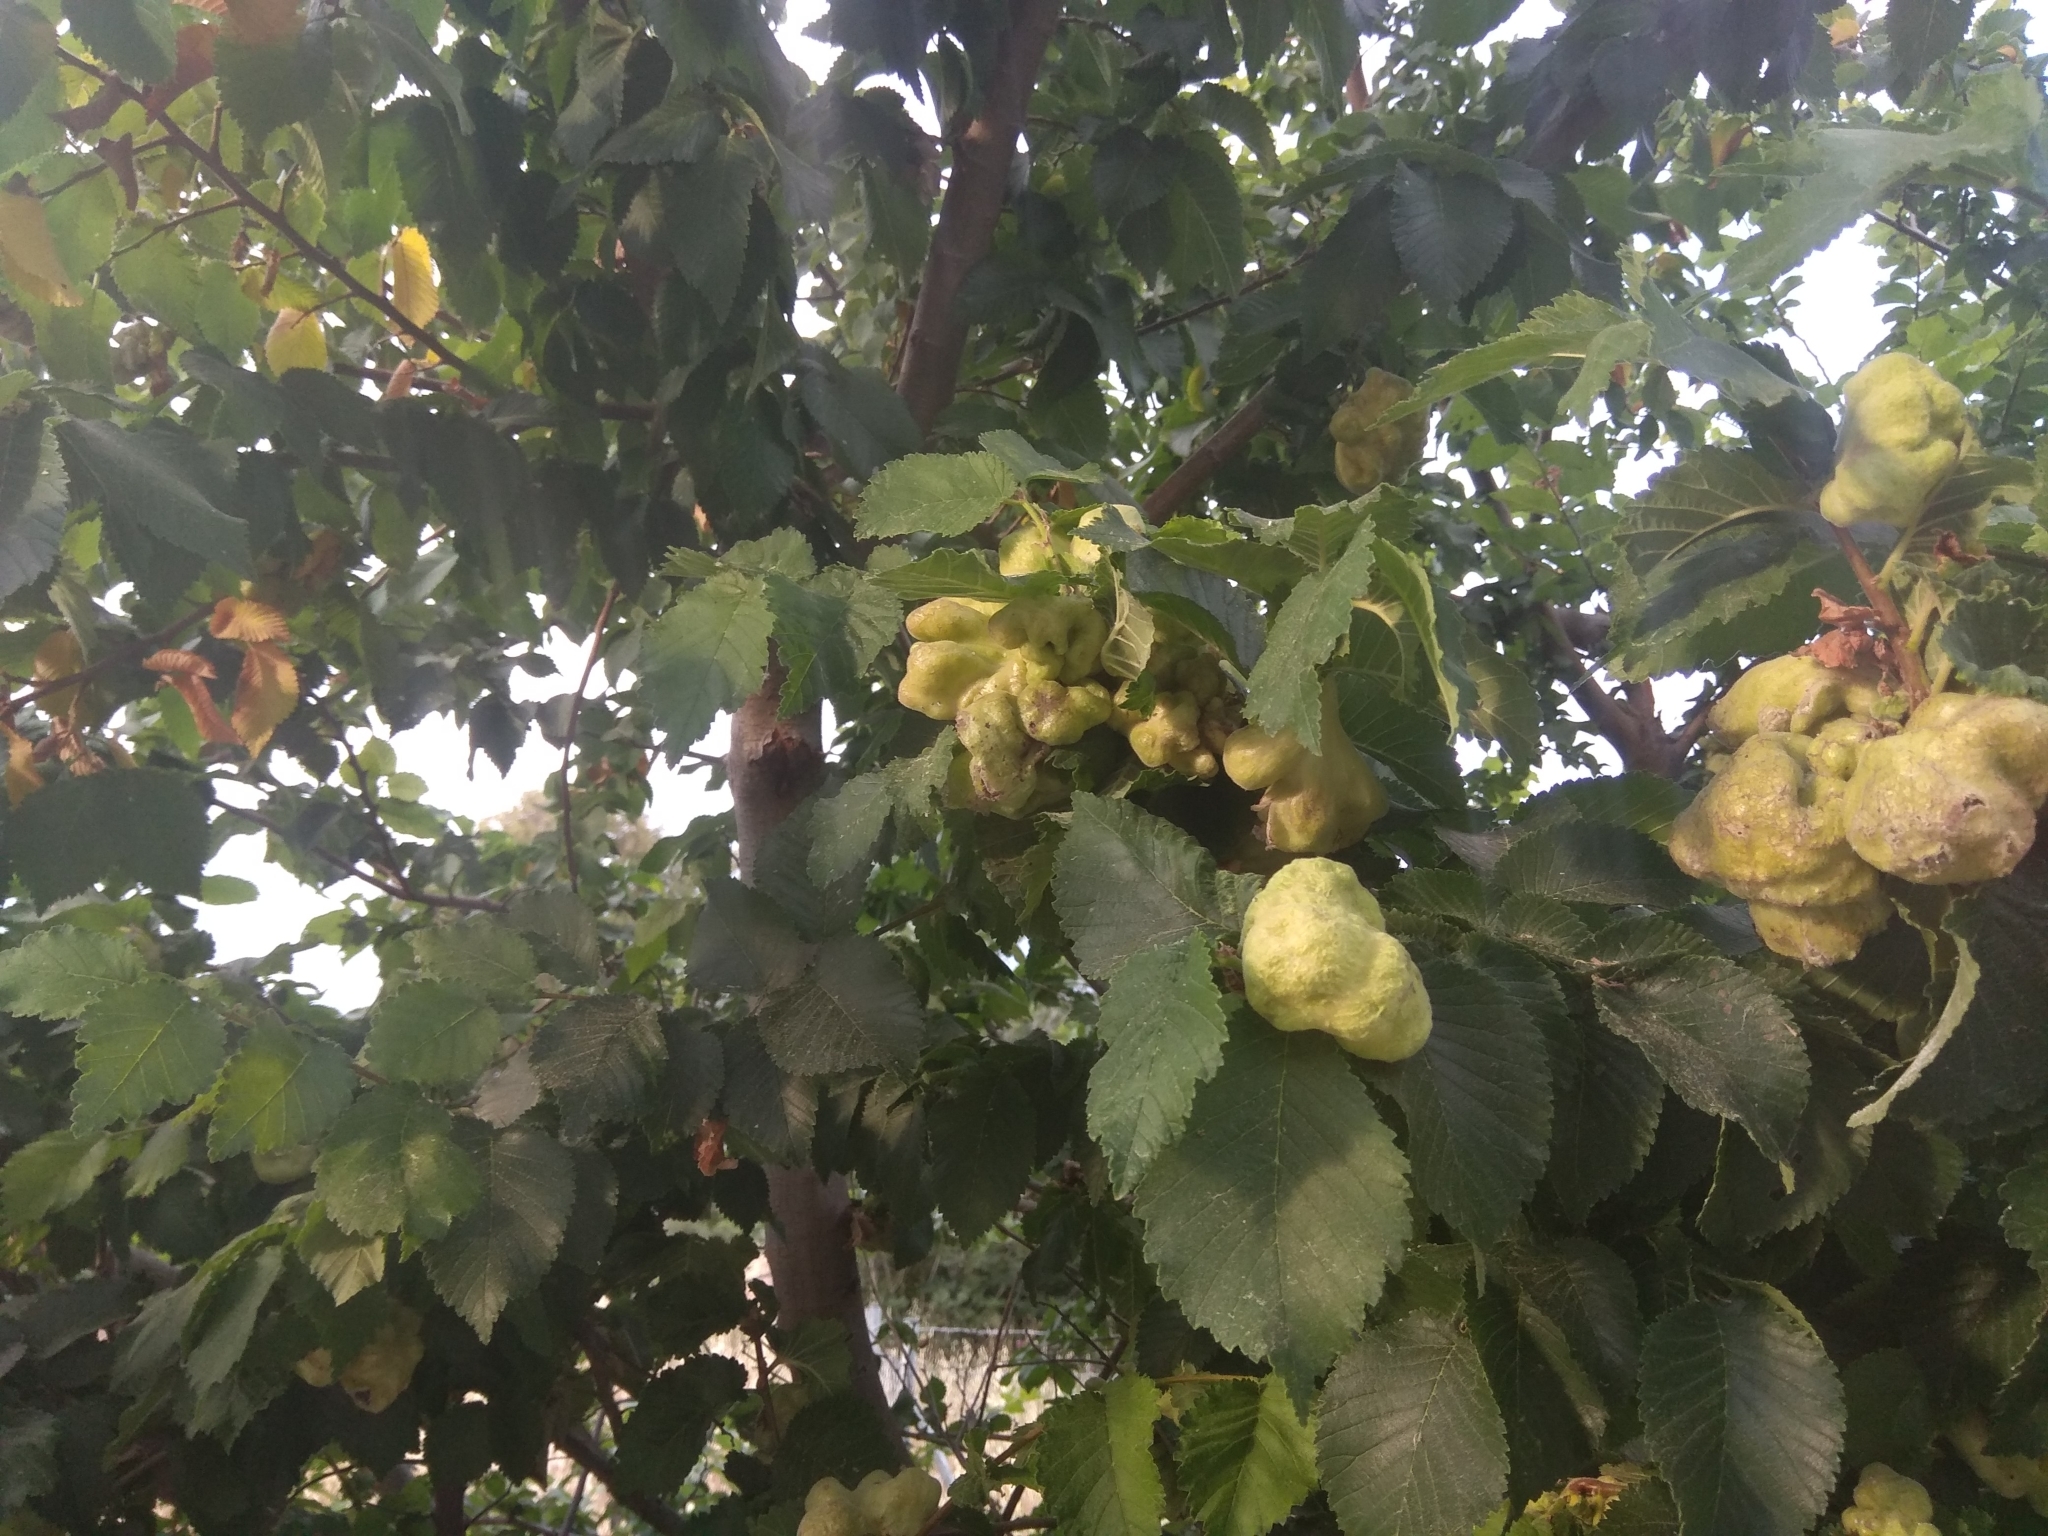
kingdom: Animalia
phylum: Arthropoda
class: Insecta
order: Hemiptera
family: Aphididae
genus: Eriosoma
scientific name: Eriosoma lanuginosum
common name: Aphid
